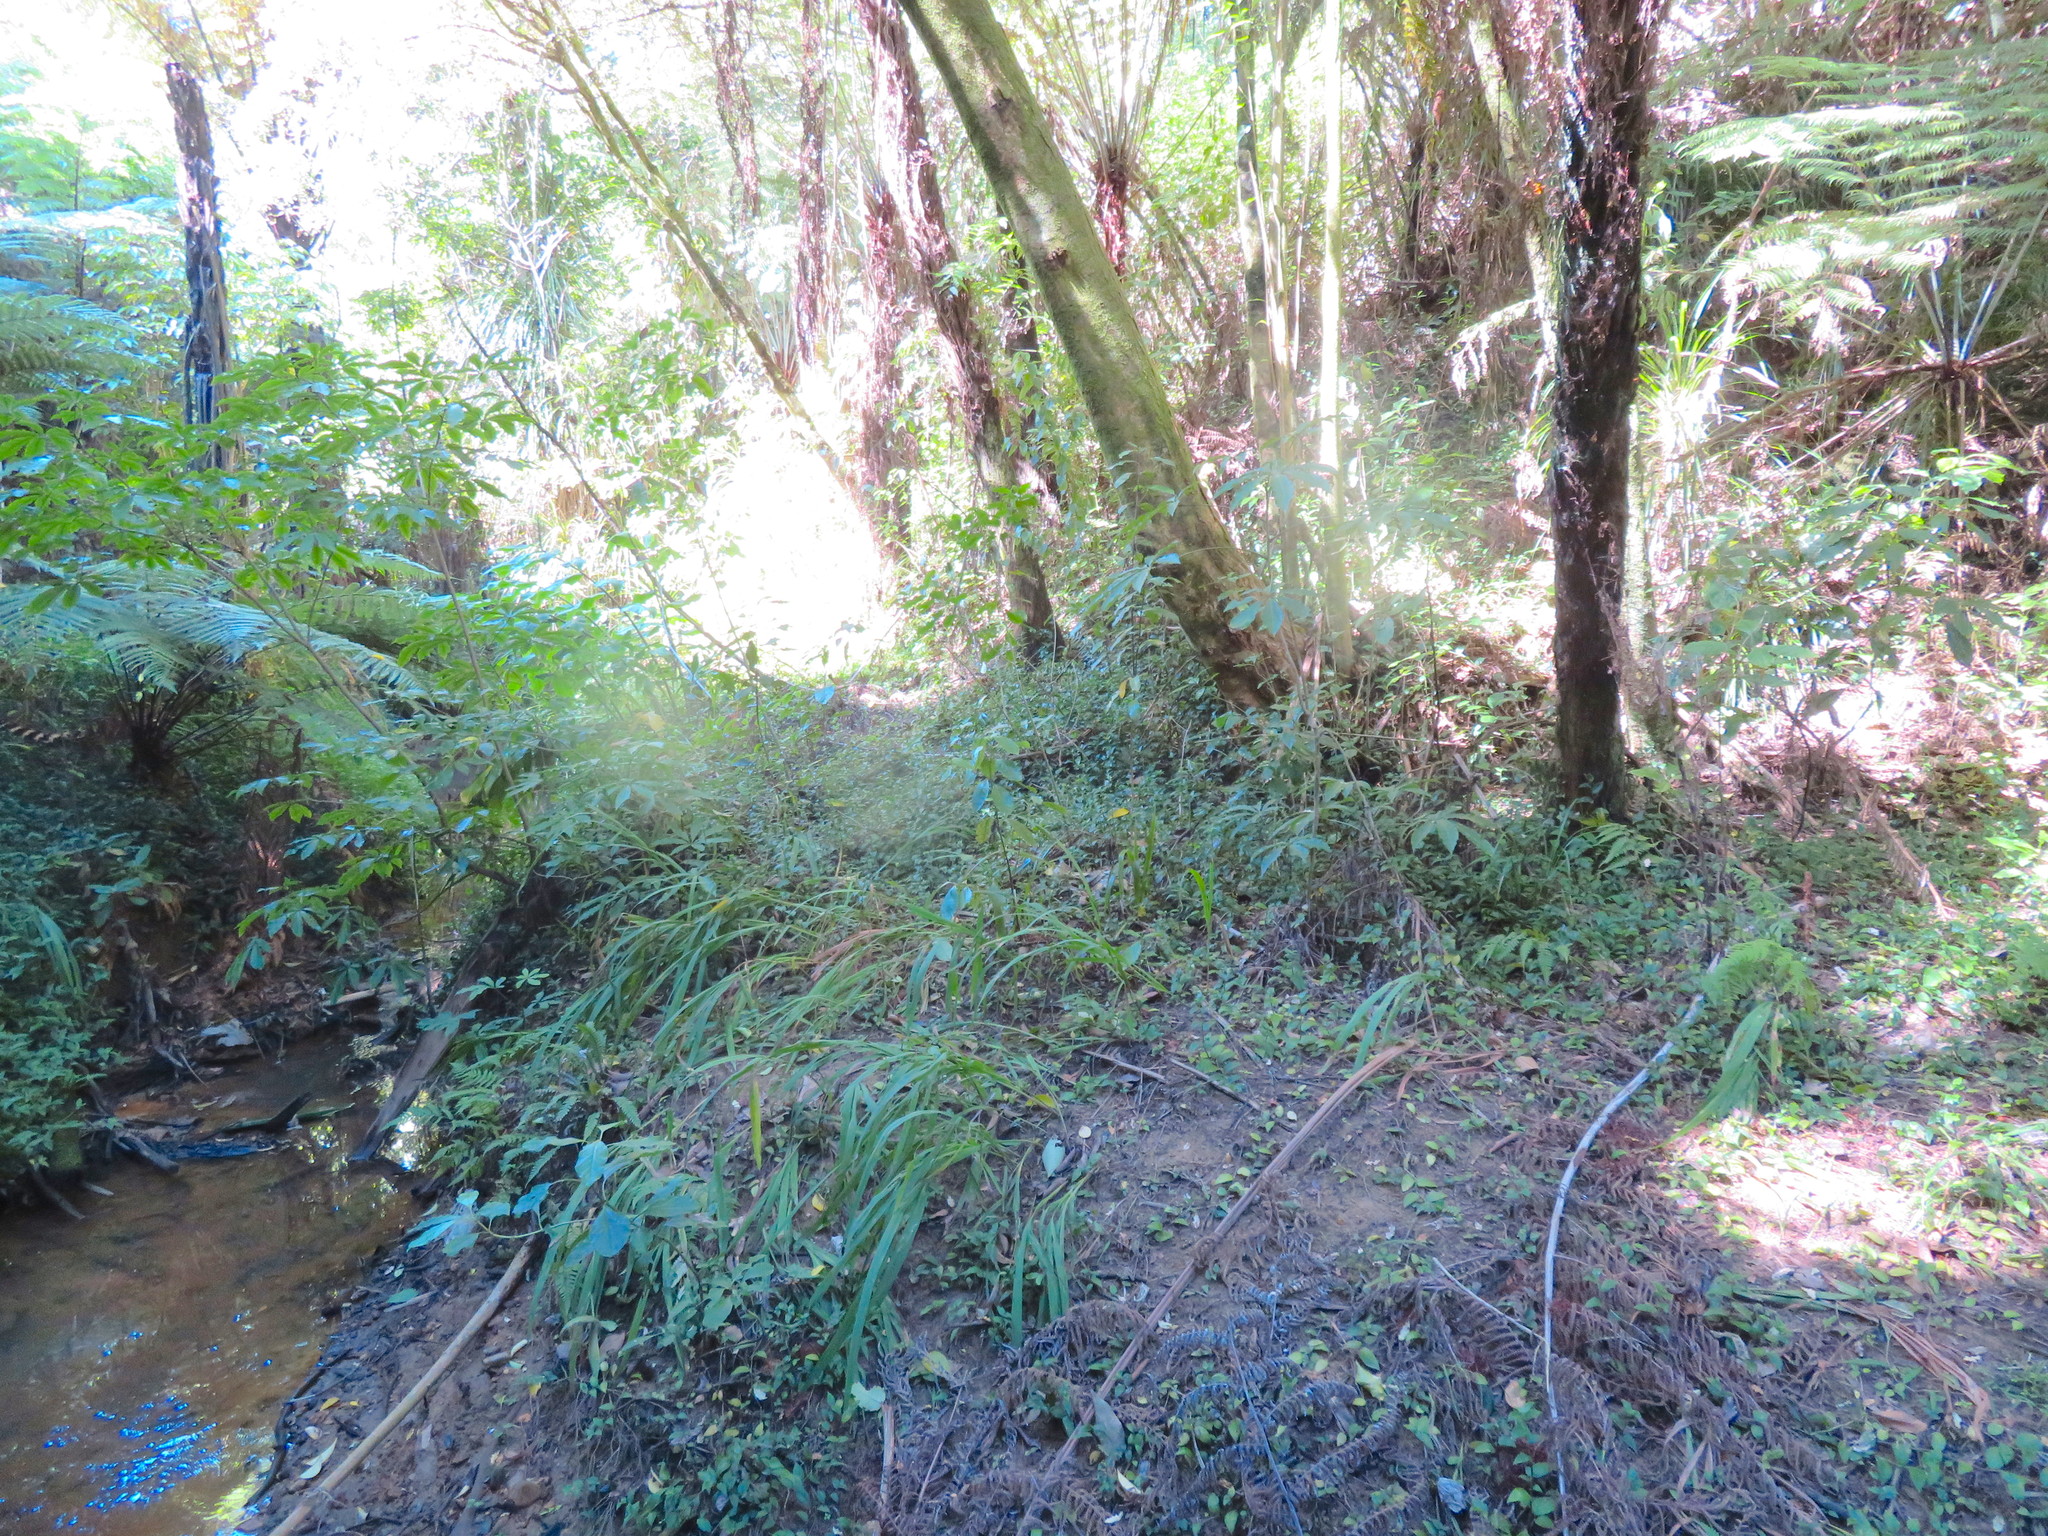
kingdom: Plantae
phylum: Tracheophyta
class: Liliopsida
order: Asparagales
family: Iridaceae
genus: Crocosmia
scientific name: Crocosmia crocosmiiflora
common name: Montbretia
